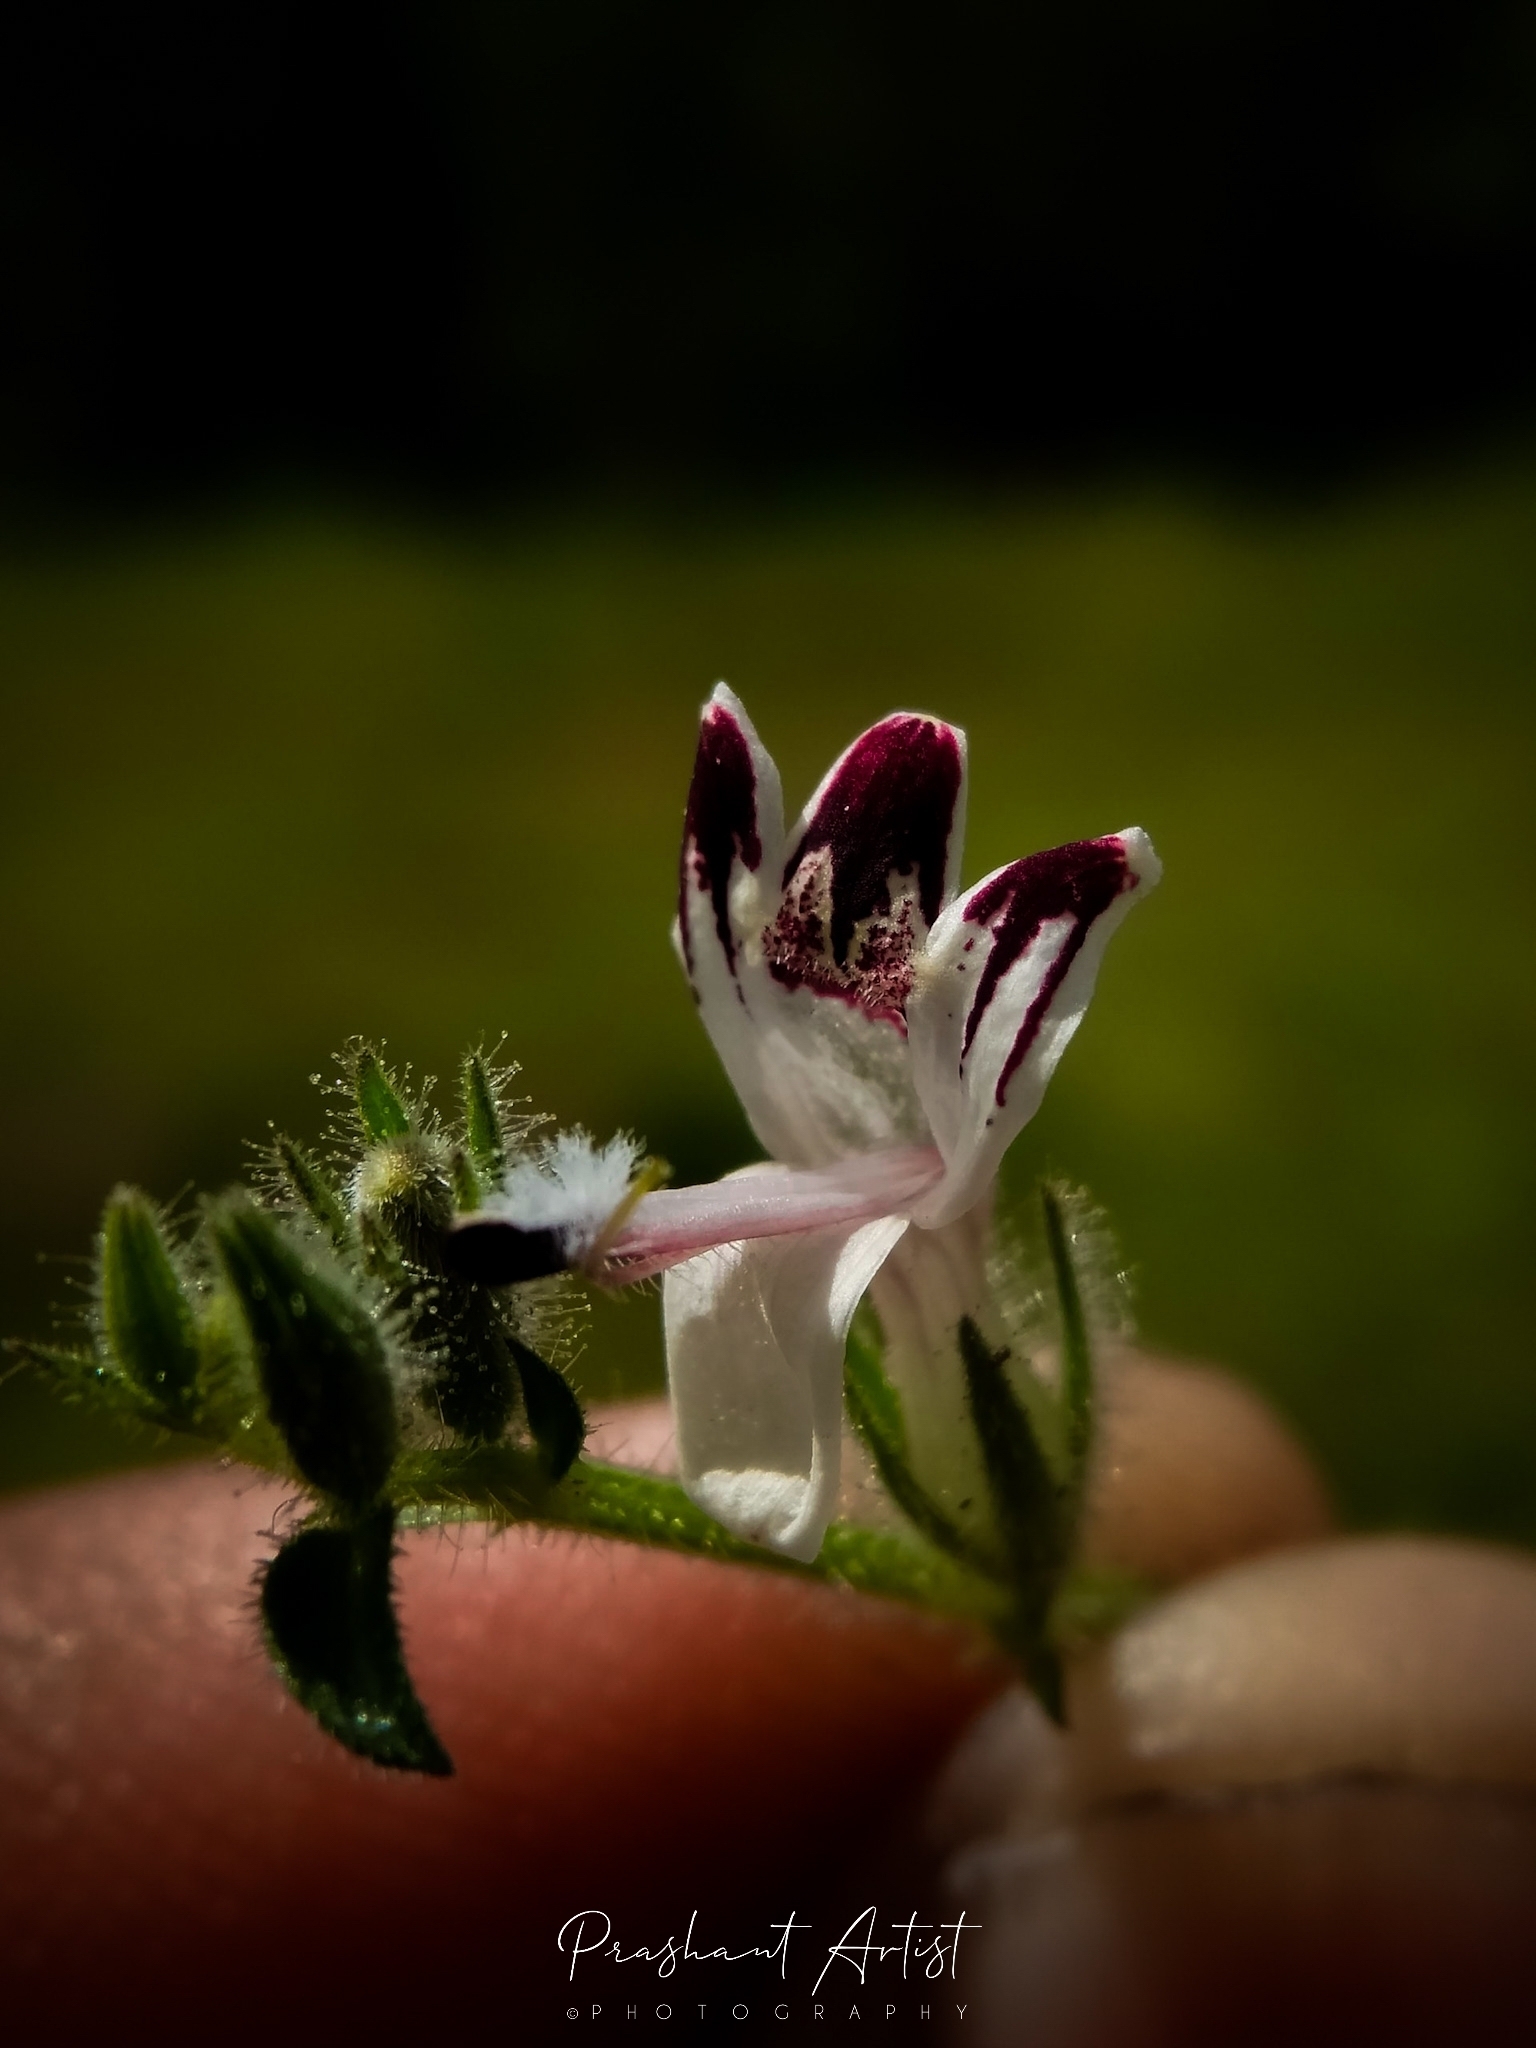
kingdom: Plantae
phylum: Tracheophyta
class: Magnoliopsida
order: Lamiales
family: Acanthaceae
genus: Andrographis
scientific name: Andrographis echioides
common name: False waterwillow
